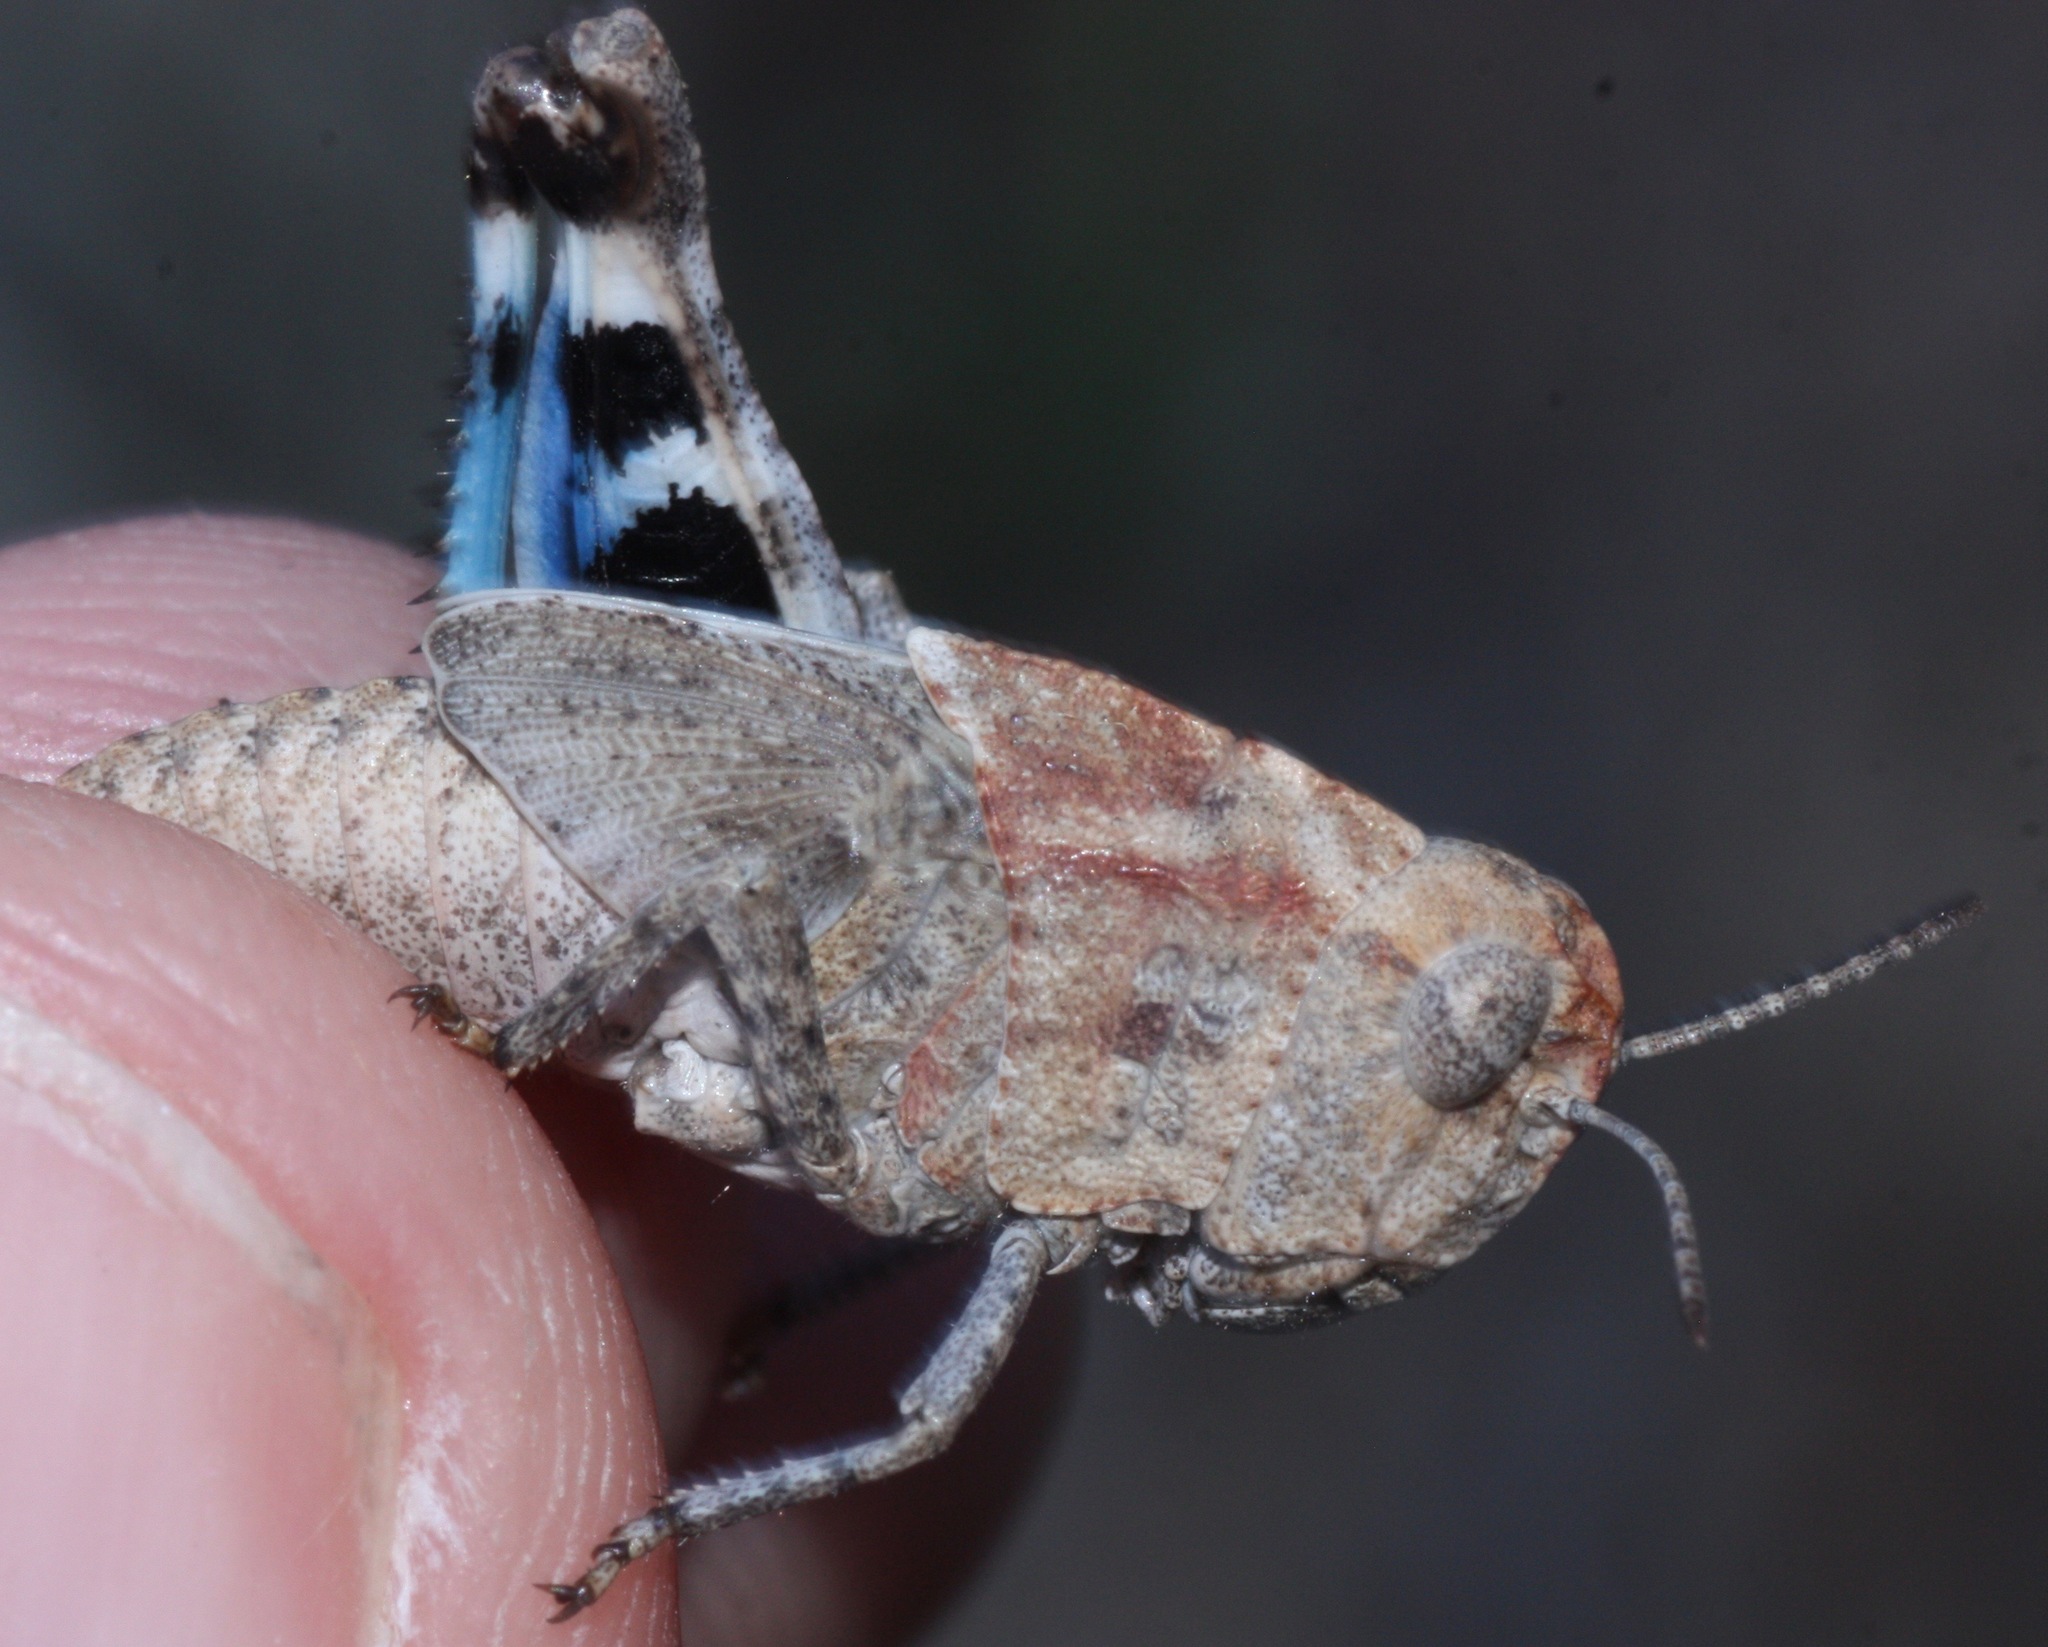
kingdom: Animalia
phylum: Arthropoda
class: Insecta
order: Orthoptera
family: Acrididae
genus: Arphia
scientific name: Arphia conspersa
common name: Speckle-winged rangeland grasshopper
